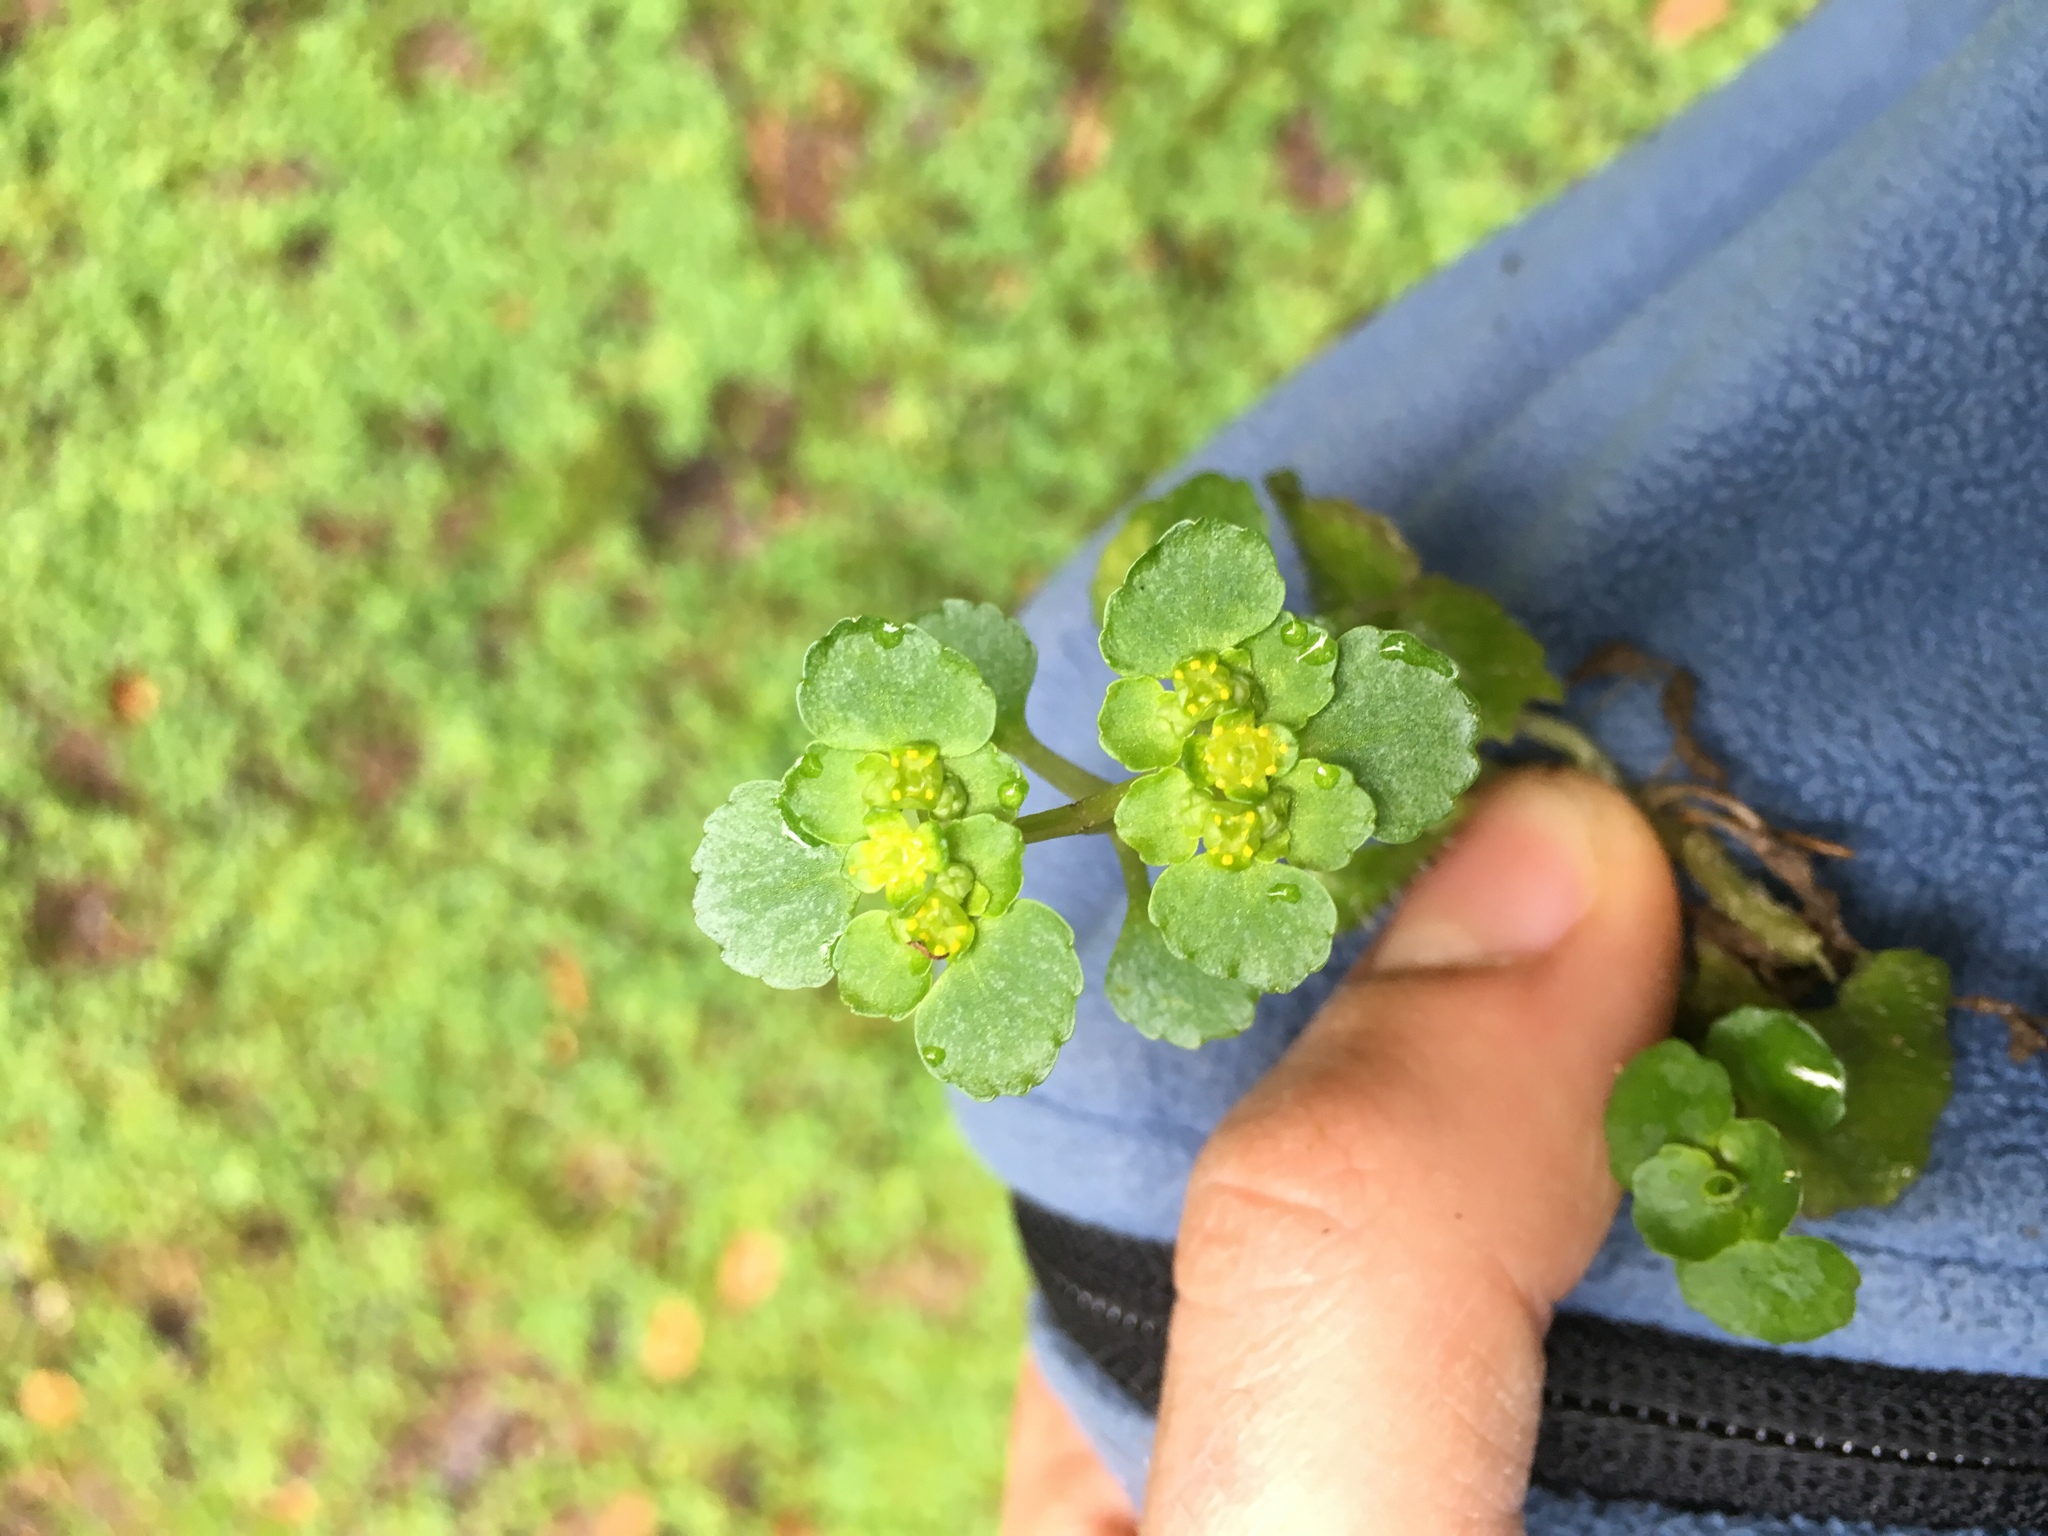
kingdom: Plantae
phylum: Tracheophyta
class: Magnoliopsida
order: Saxifragales
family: Saxifragaceae
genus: Chrysosplenium
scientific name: Chrysosplenium oppositifolium
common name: Opposite-leaved golden-saxifrage
